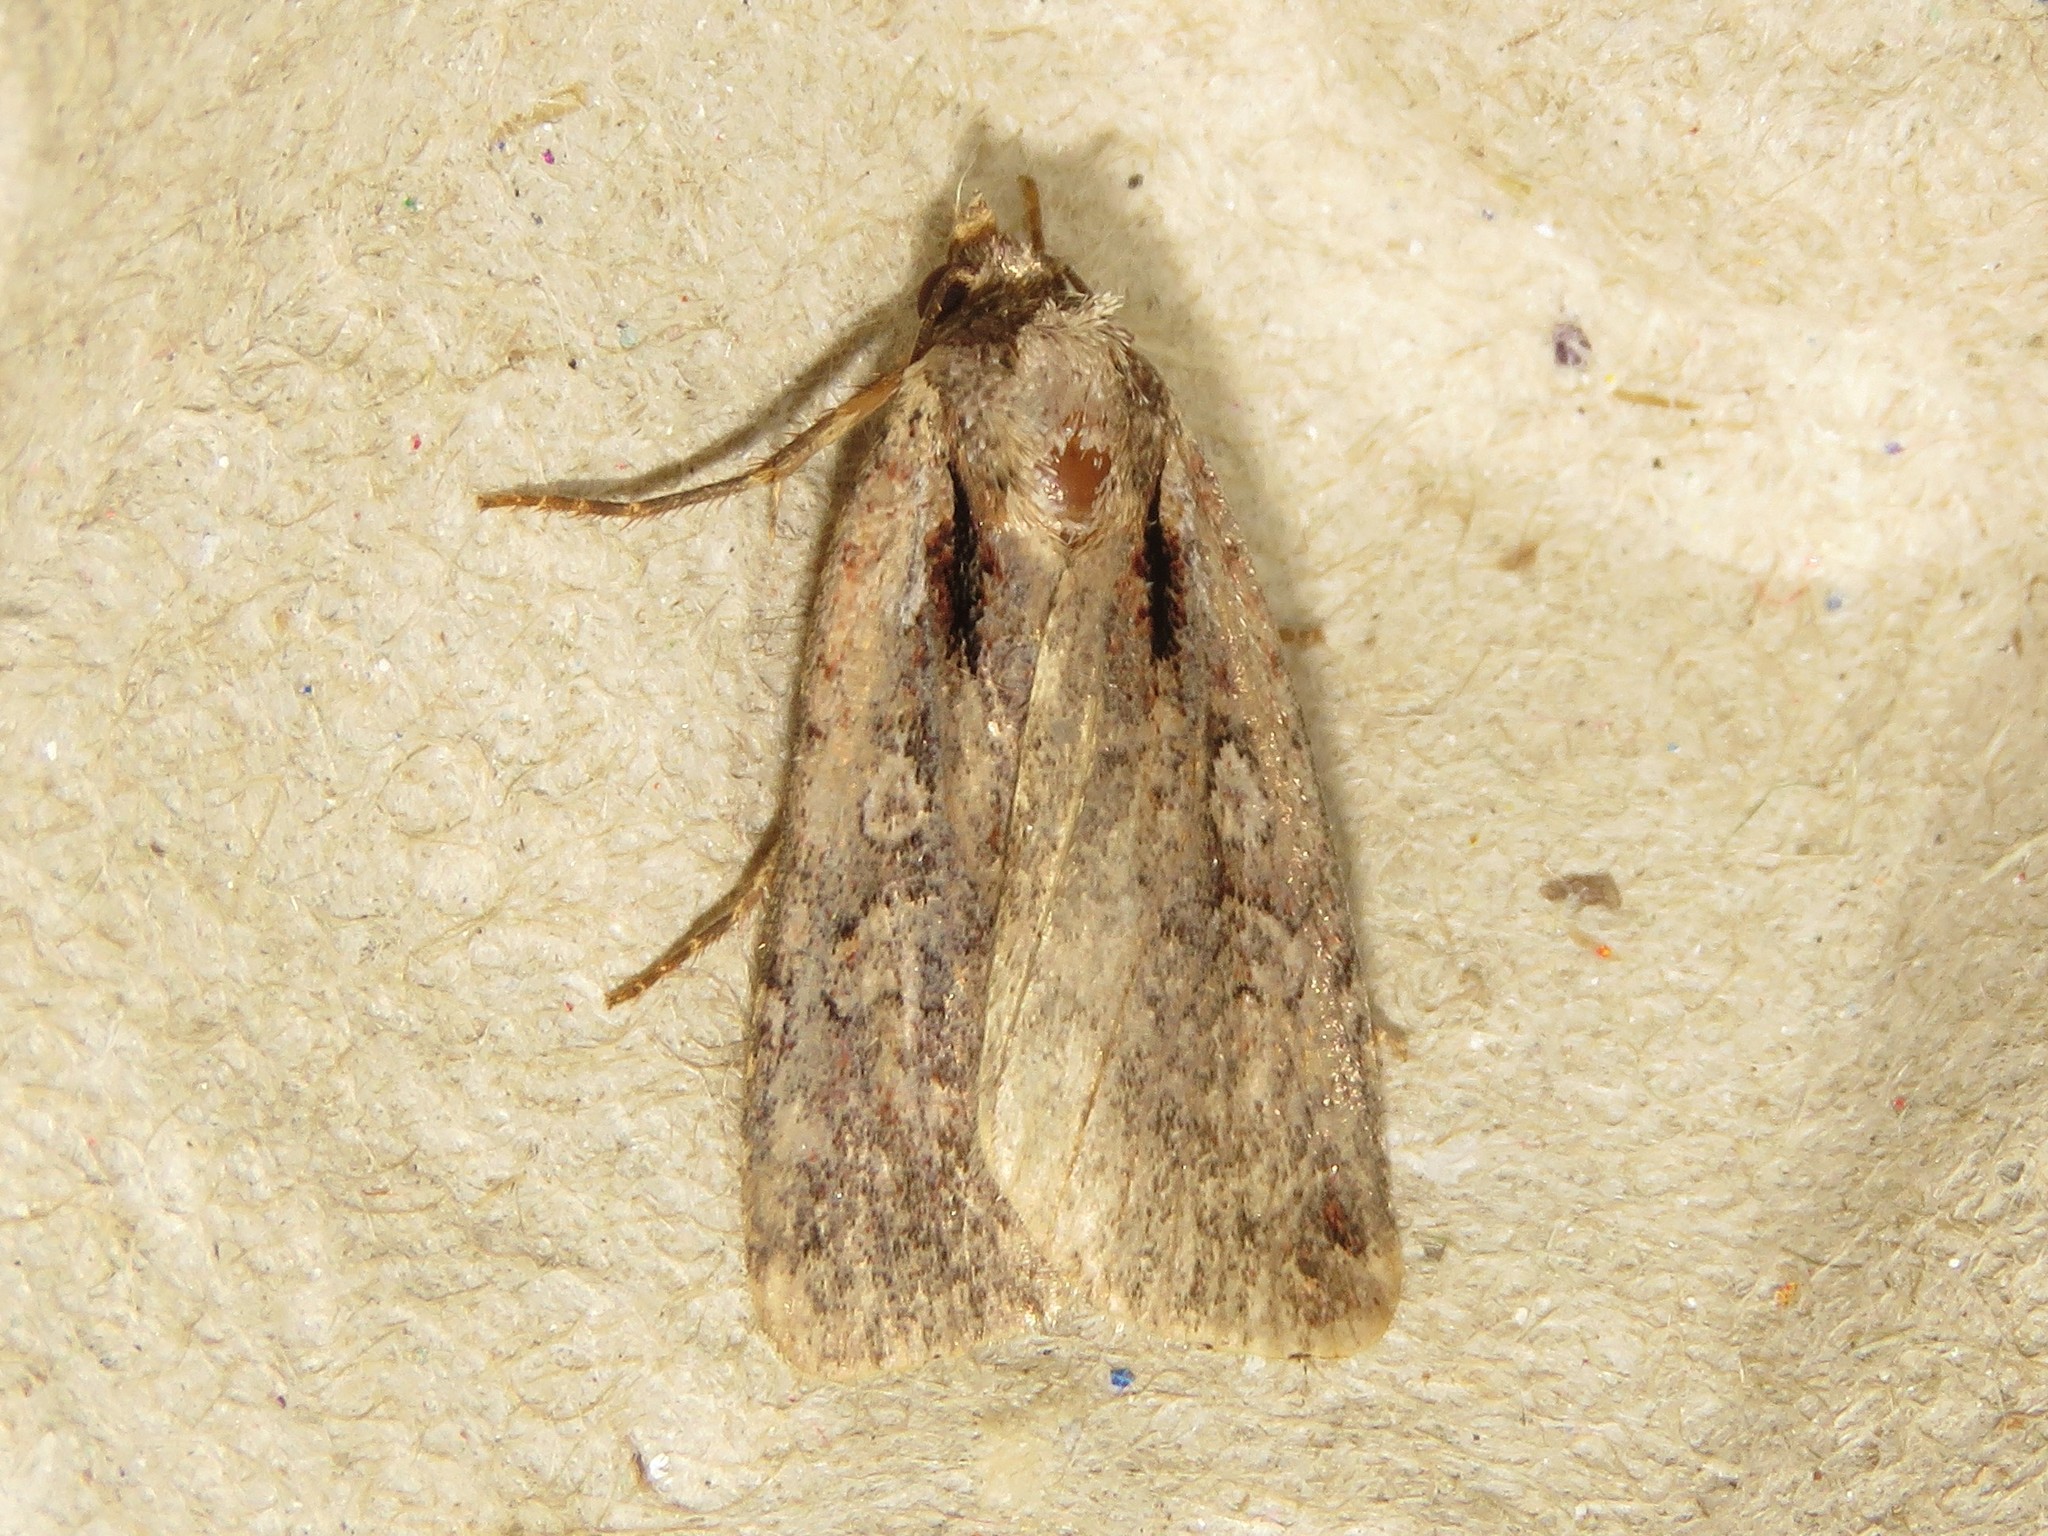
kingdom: Animalia
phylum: Arthropoda
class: Insecta
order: Lepidoptera
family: Noctuidae
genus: Eueretagrotis
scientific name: Eueretagrotis attentus
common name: Attentive dart
